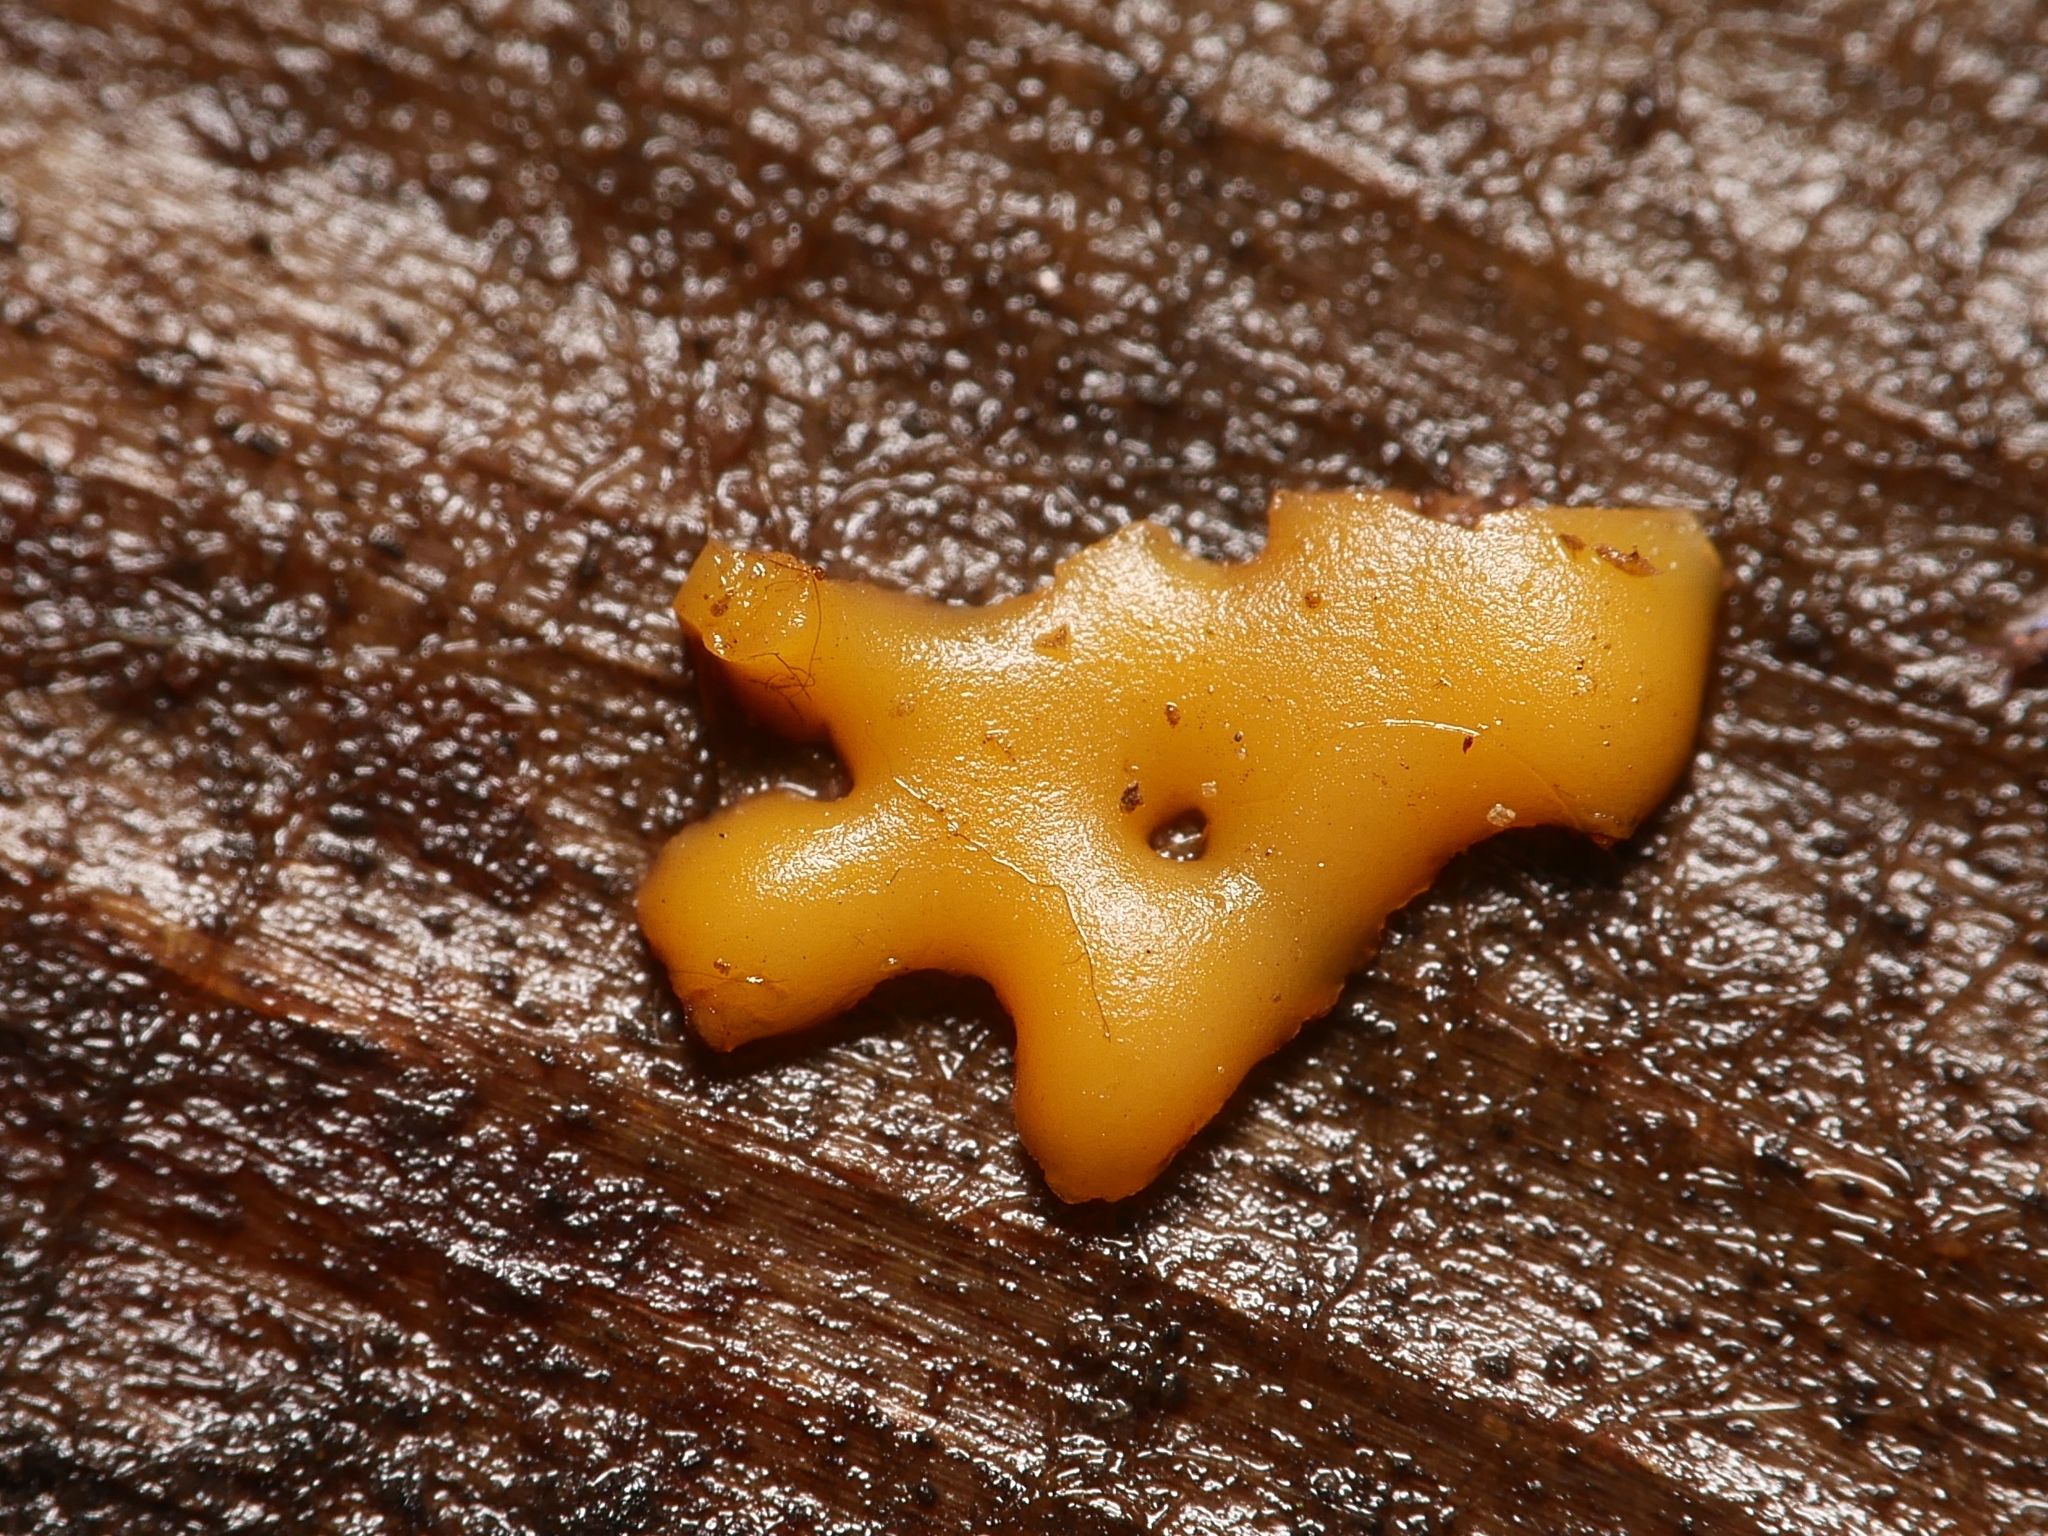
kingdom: Protozoa
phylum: Mycetozoa
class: Myxomycetes
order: Trichiales
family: Dianemataceae
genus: Dianema
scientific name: Dianema corticatum
